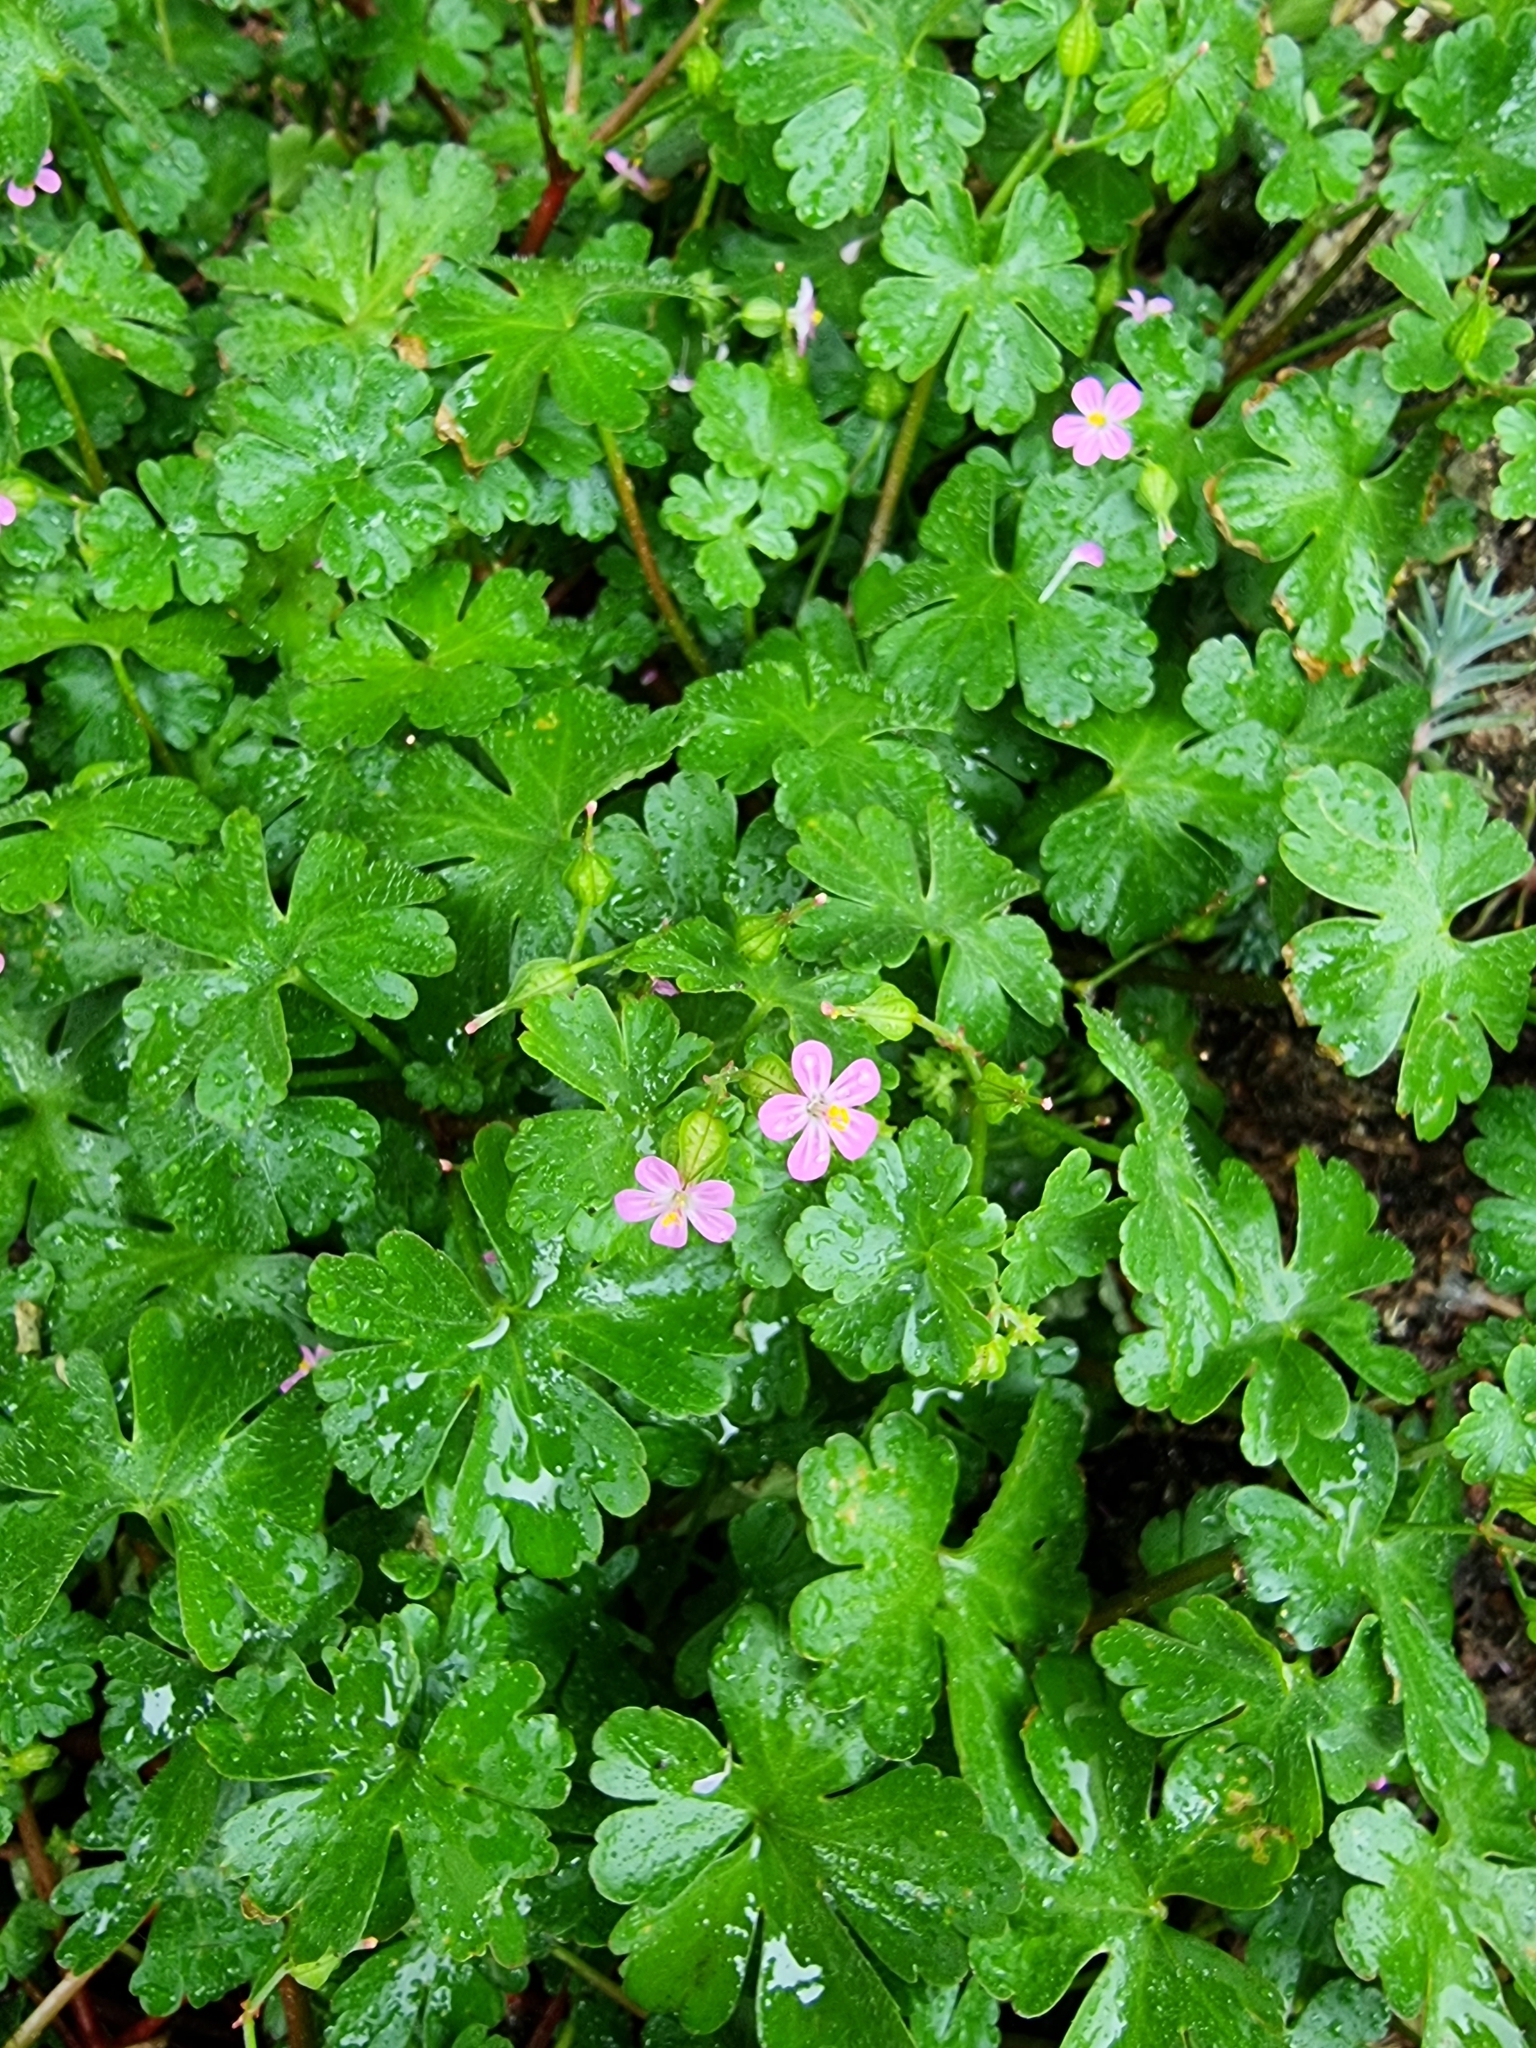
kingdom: Plantae
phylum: Tracheophyta
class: Magnoliopsida
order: Geraniales
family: Geraniaceae
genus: Geranium
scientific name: Geranium lucidum
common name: Shining crane's-bill
